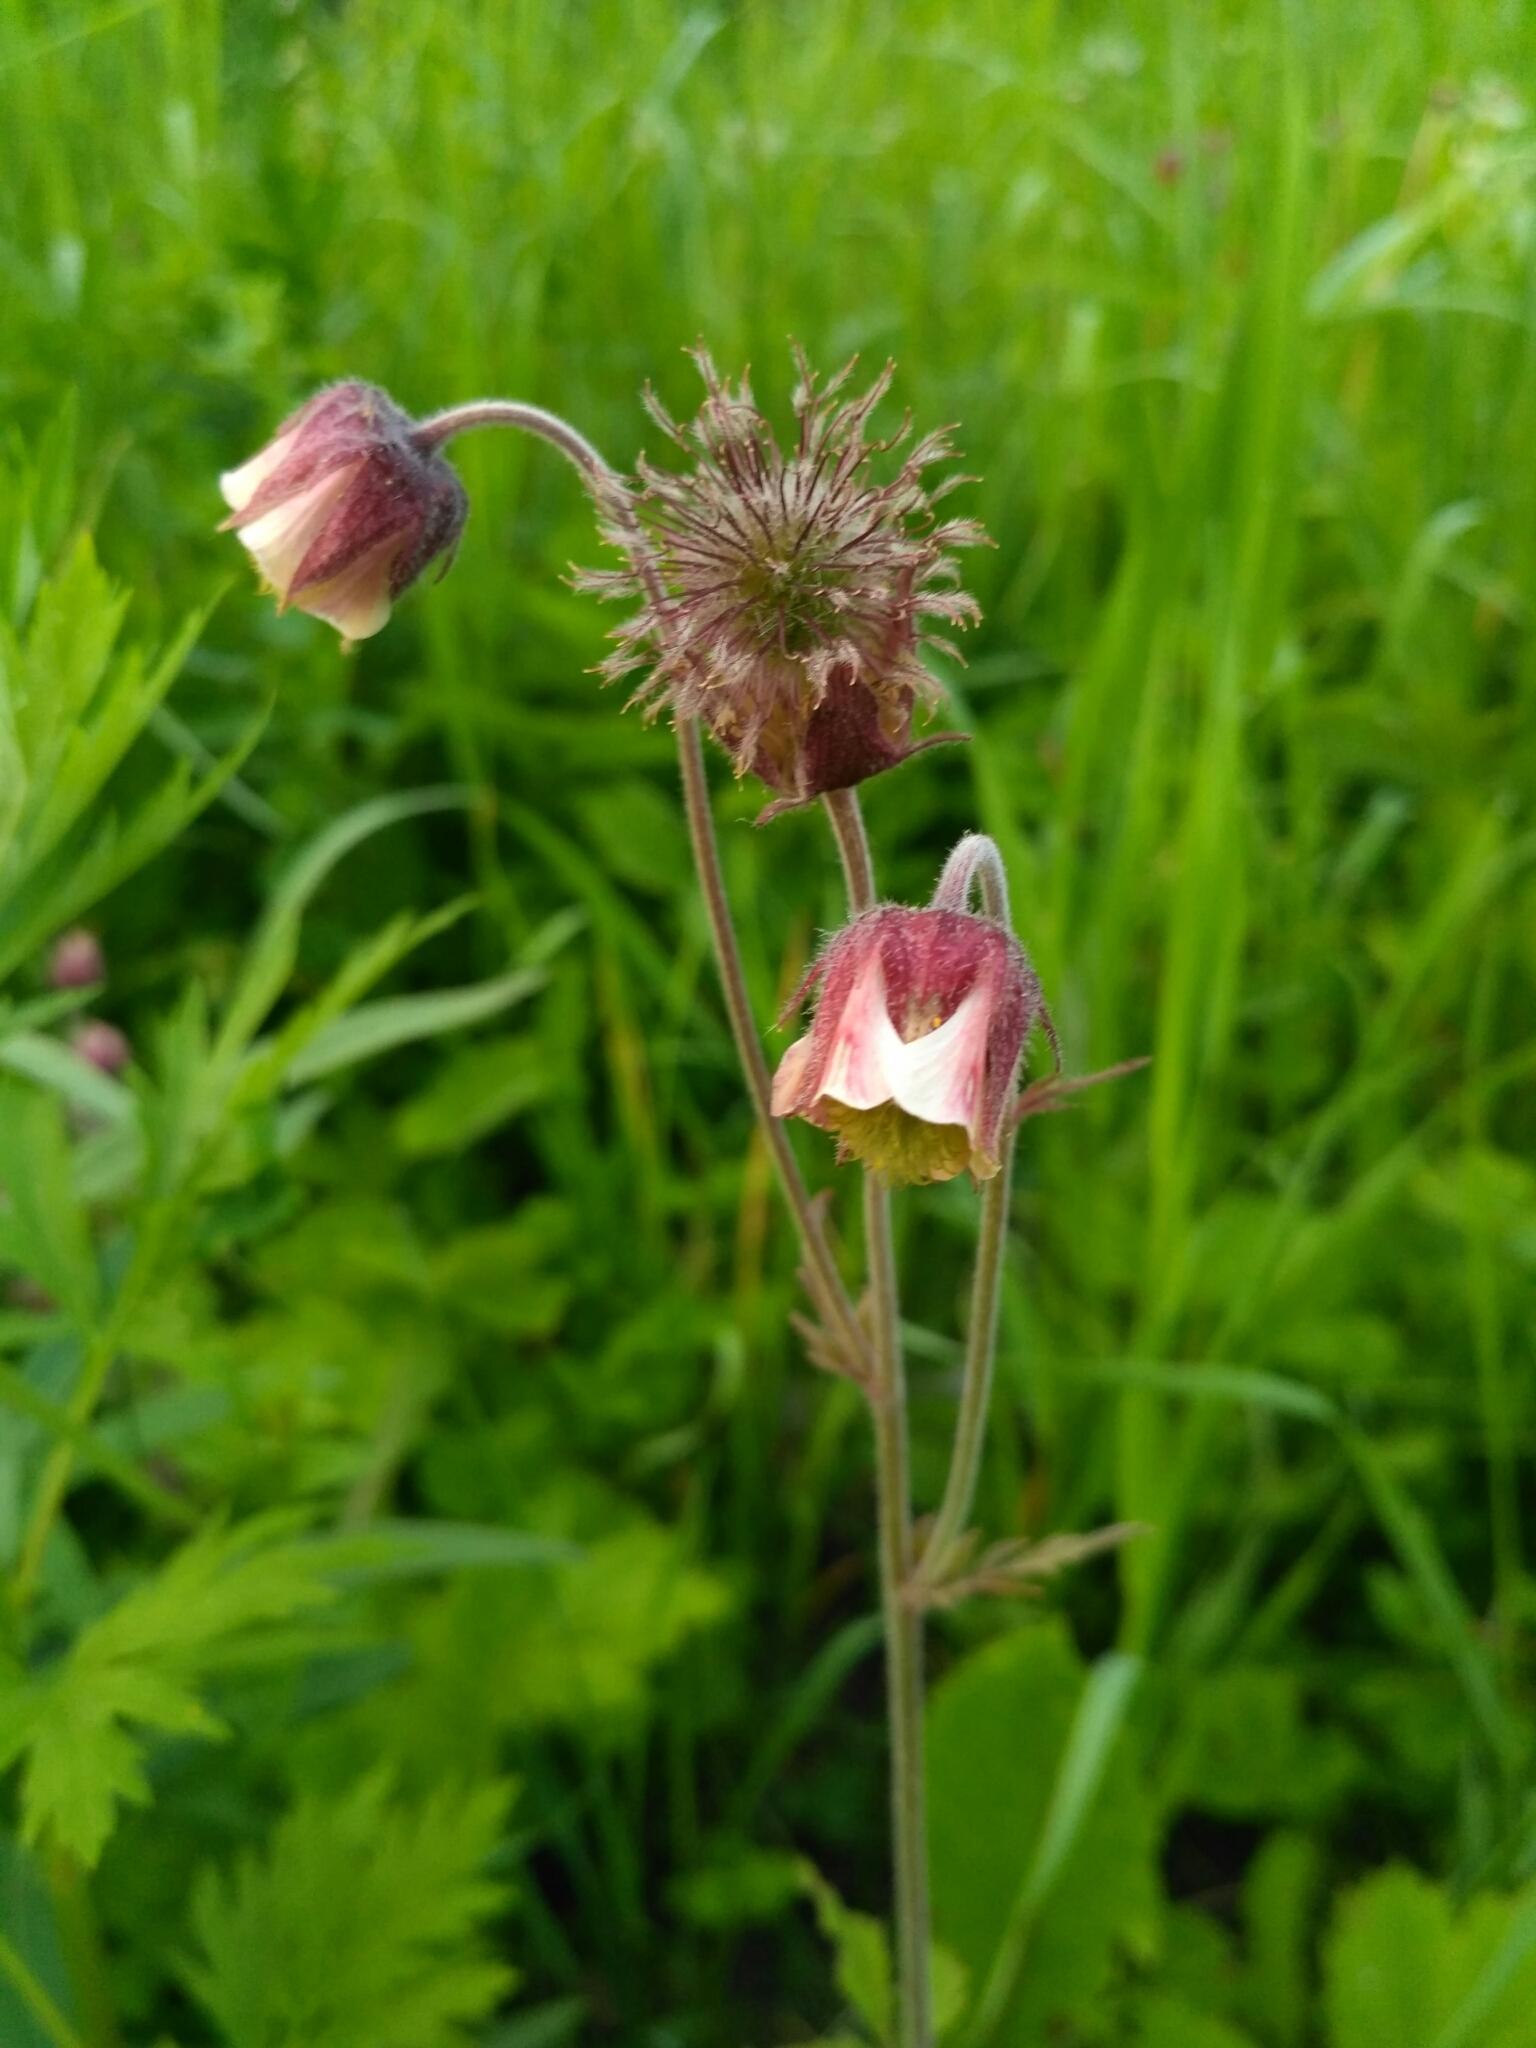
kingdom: Plantae
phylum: Tracheophyta
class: Magnoliopsida
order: Rosales
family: Rosaceae
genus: Geum
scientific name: Geum rivale
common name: Water avens
